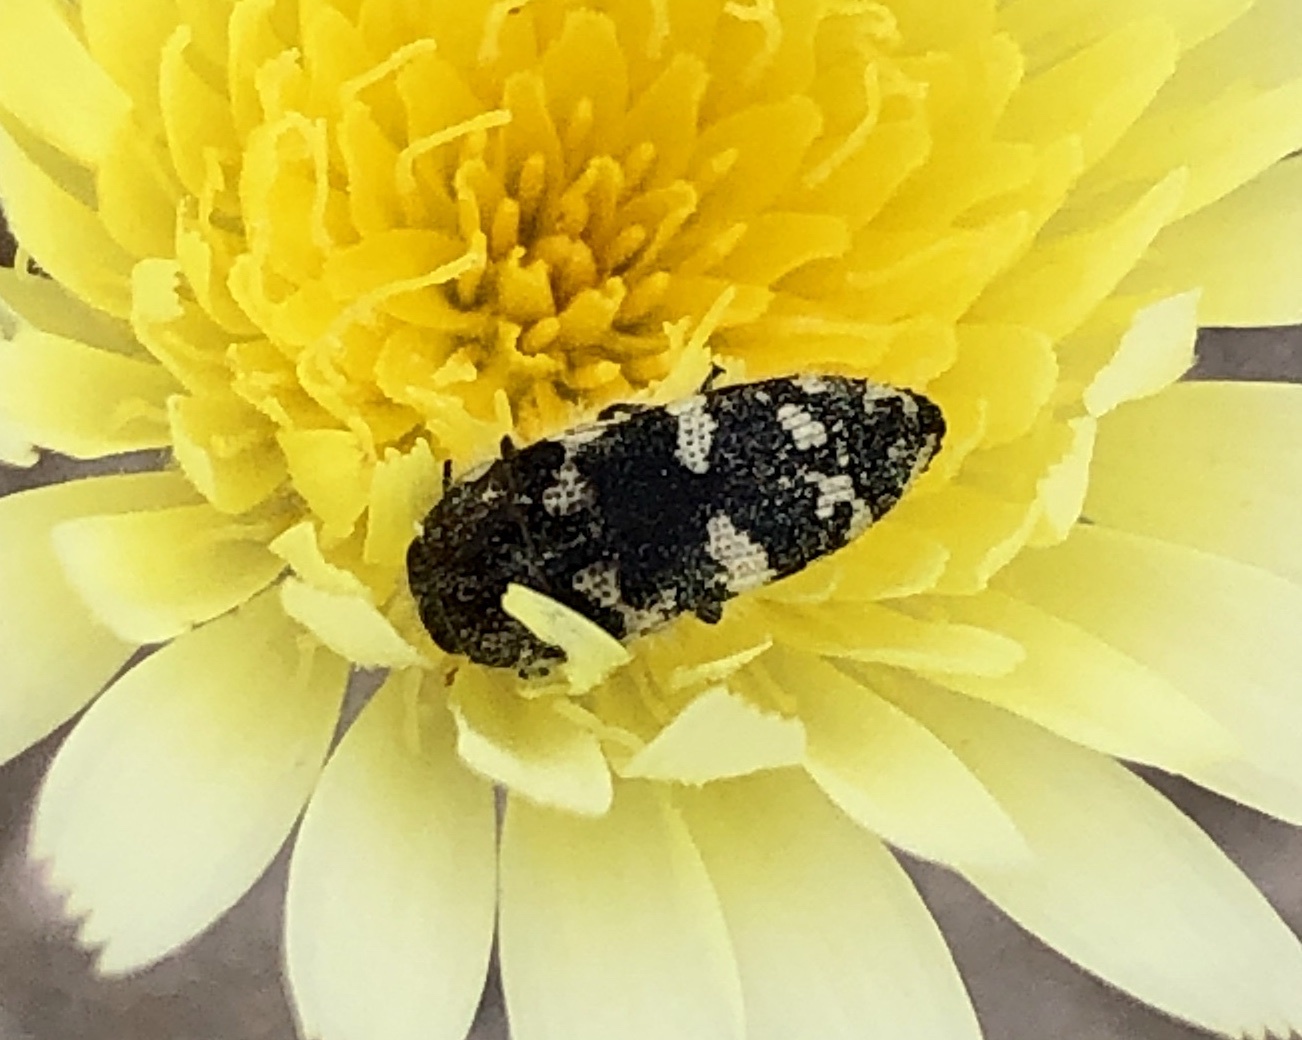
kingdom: Animalia
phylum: Arthropoda
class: Insecta
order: Coleoptera
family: Buprestidae
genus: Acmaeodera
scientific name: Acmaeodera tuta
